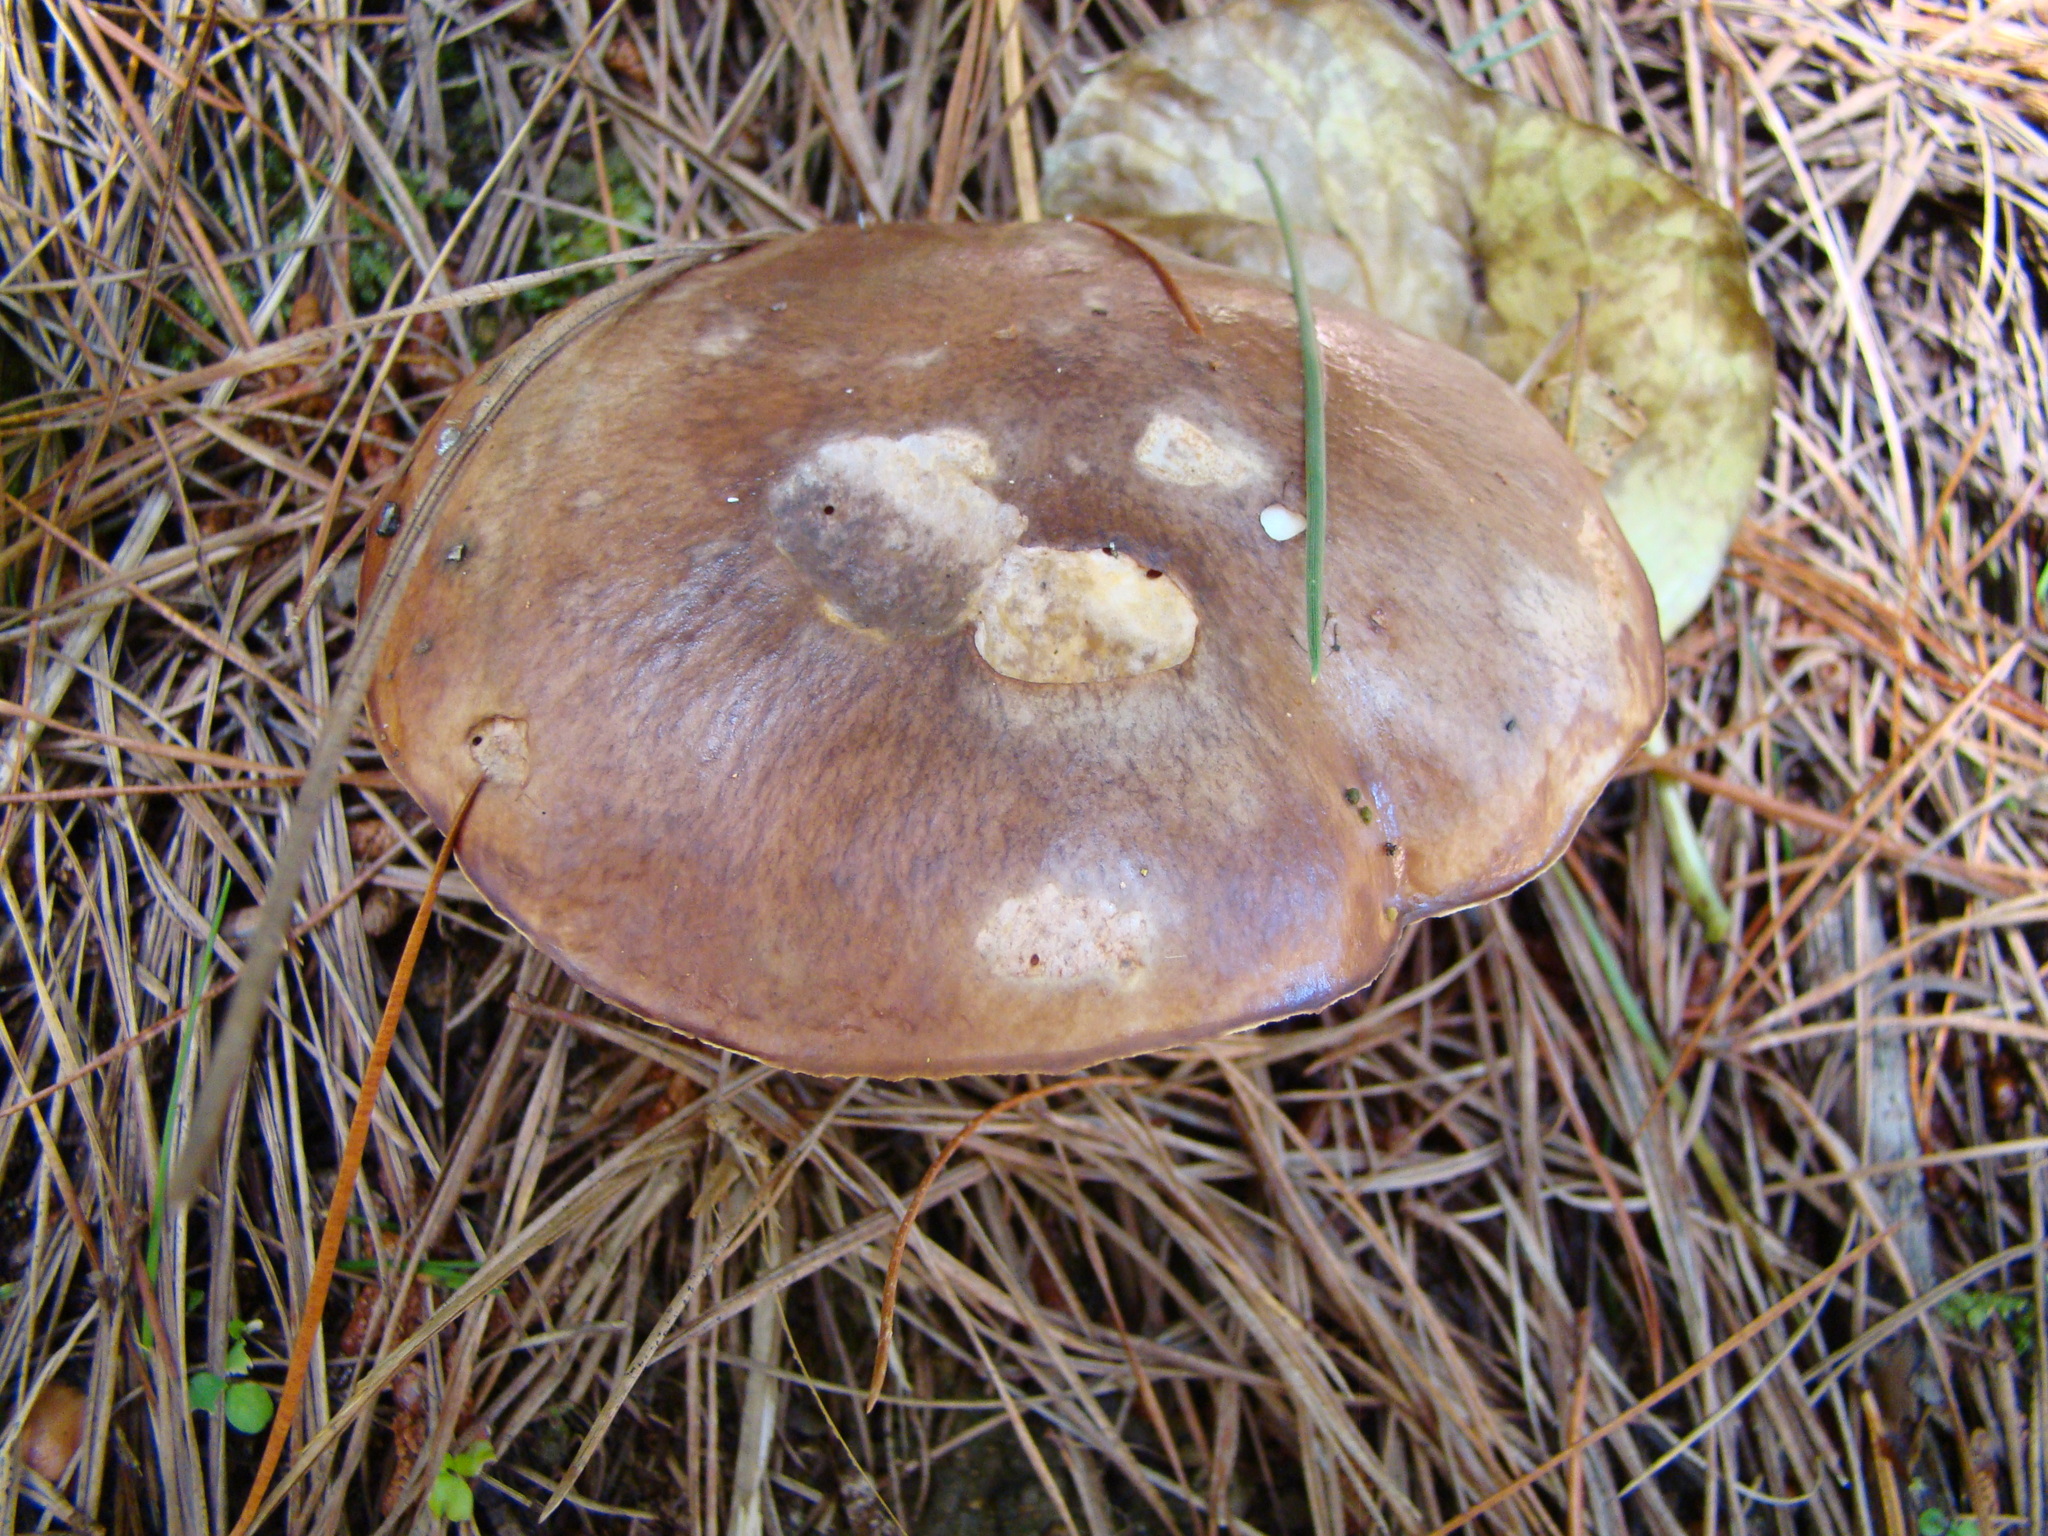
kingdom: Fungi
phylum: Basidiomycota
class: Agaricomycetes
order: Boletales
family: Suillaceae
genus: Suillus
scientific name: Suillus luteus
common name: Slippery jack
